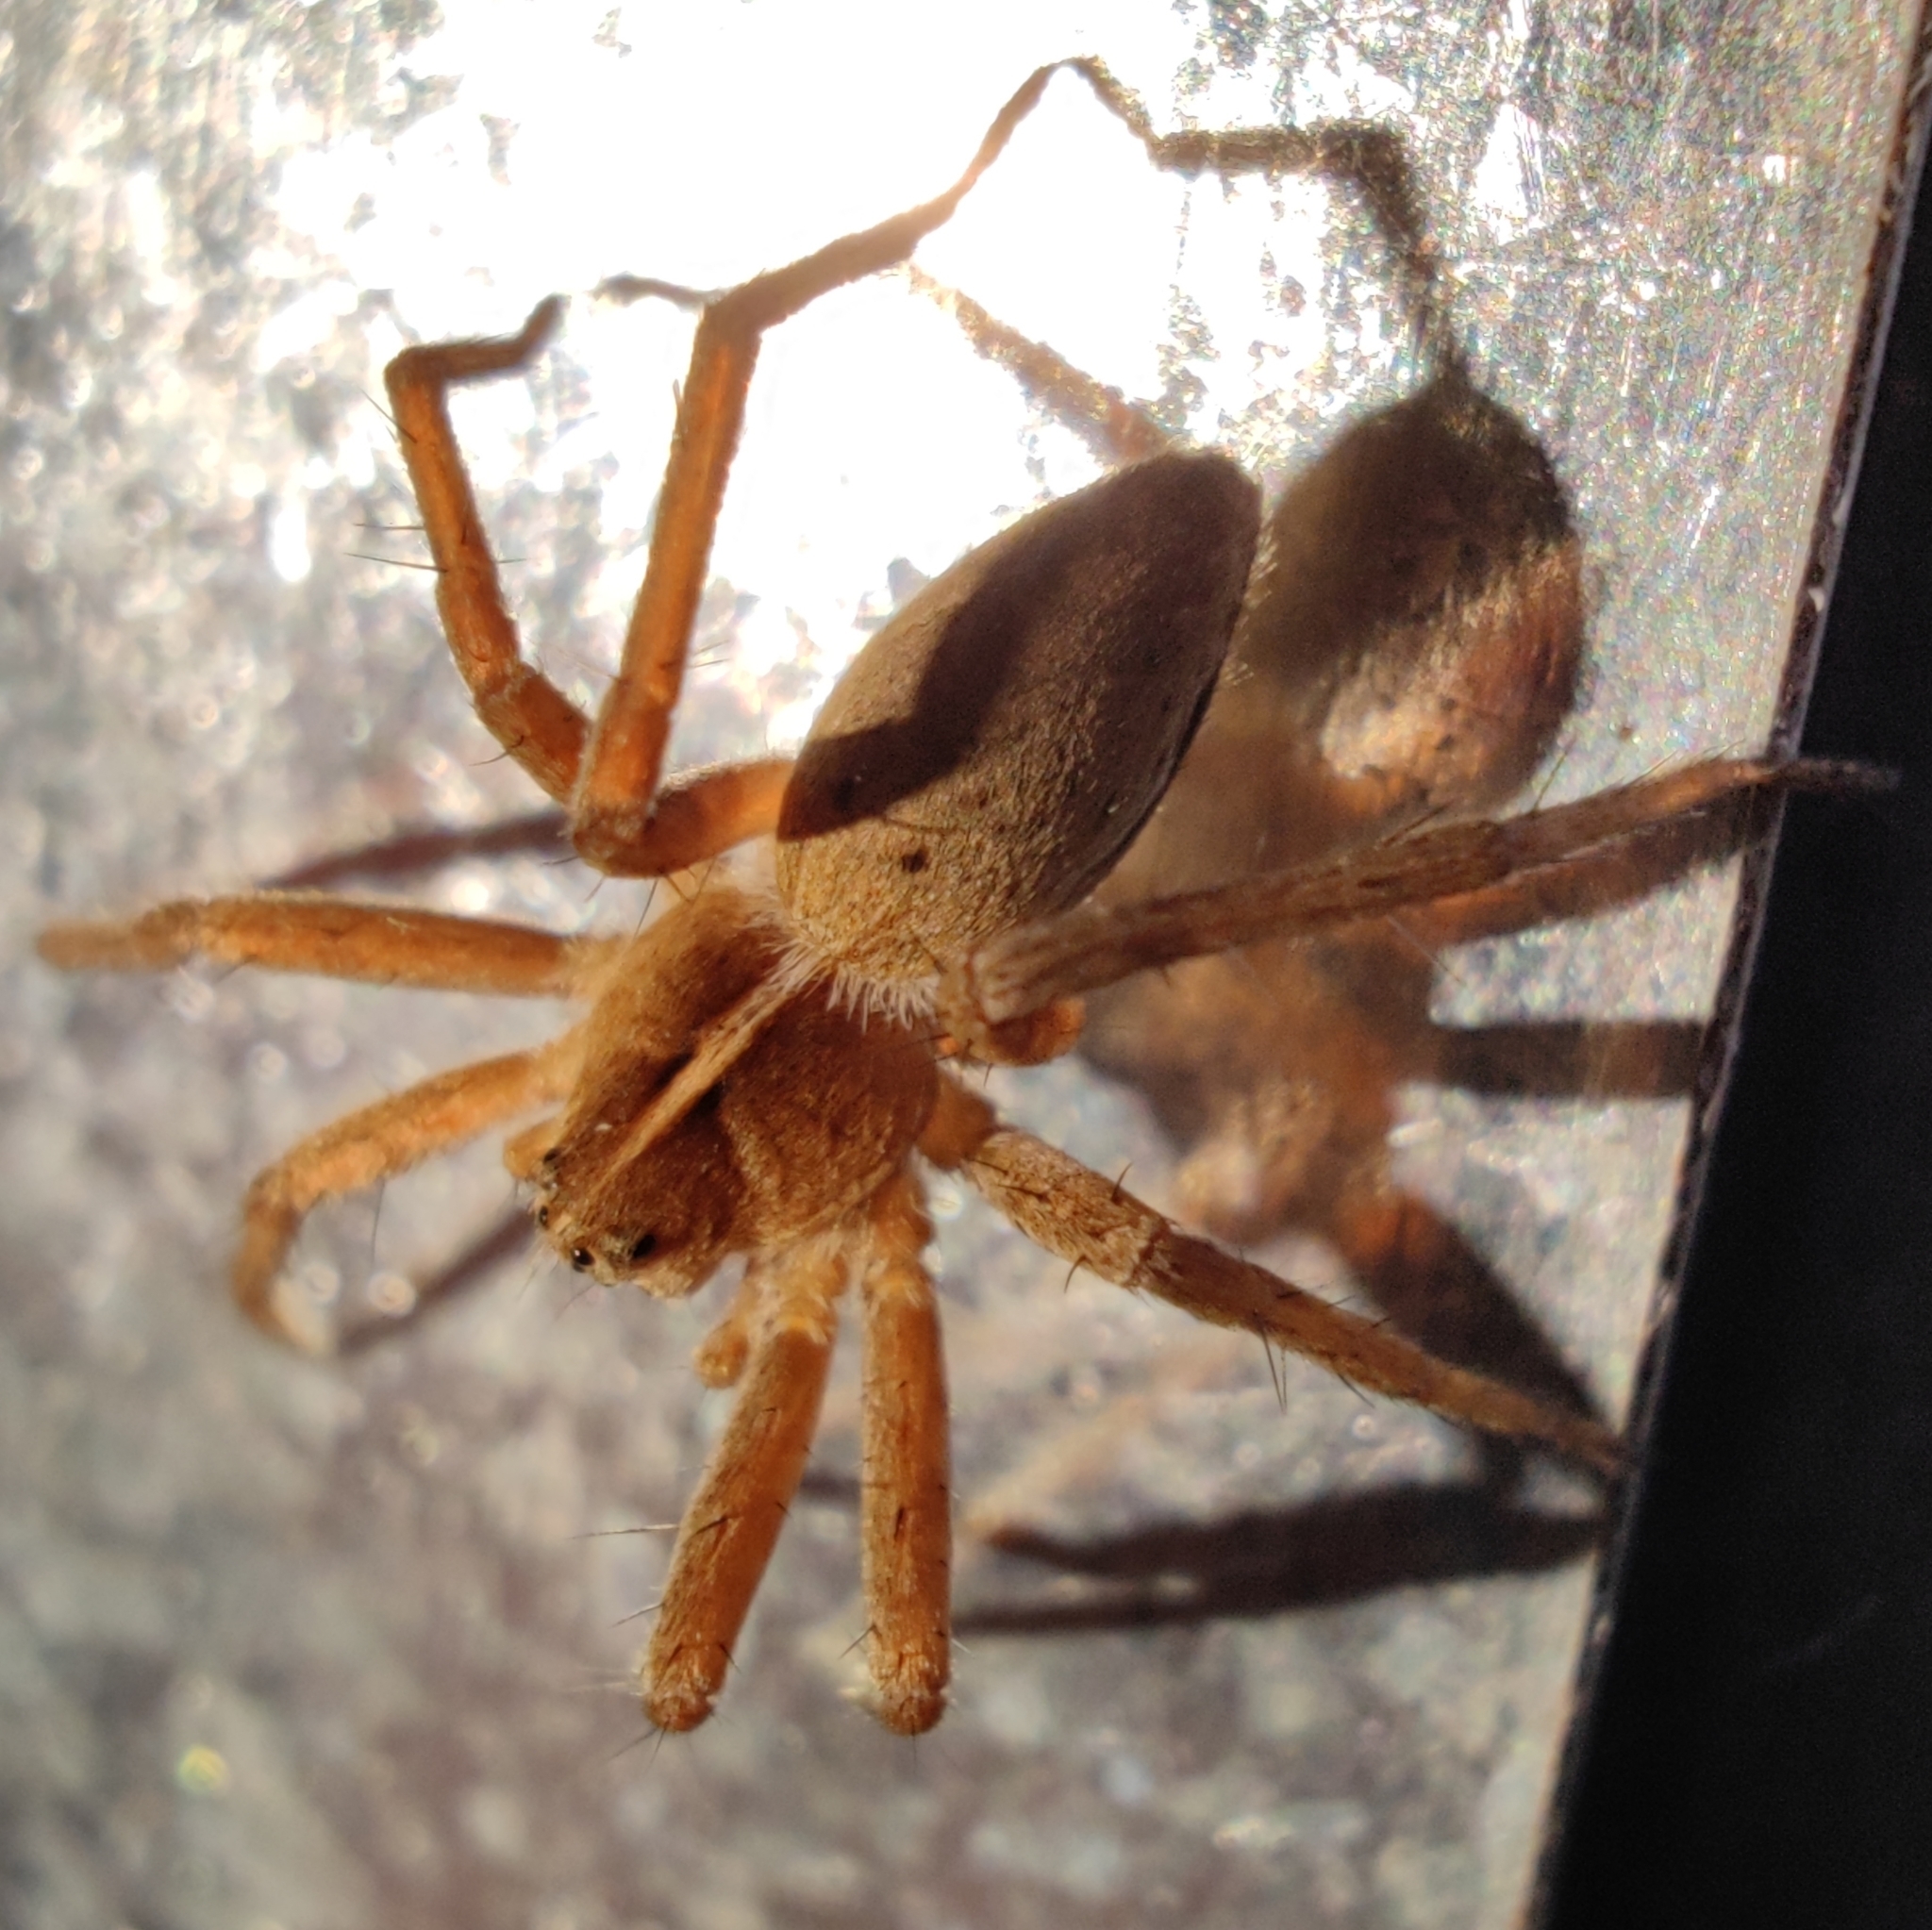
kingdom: Animalia
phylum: Arthropoda
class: Arachnida
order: Araneae
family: Pisauridae
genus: Pisaura
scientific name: Pisaura mirabilis
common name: Tent spider
